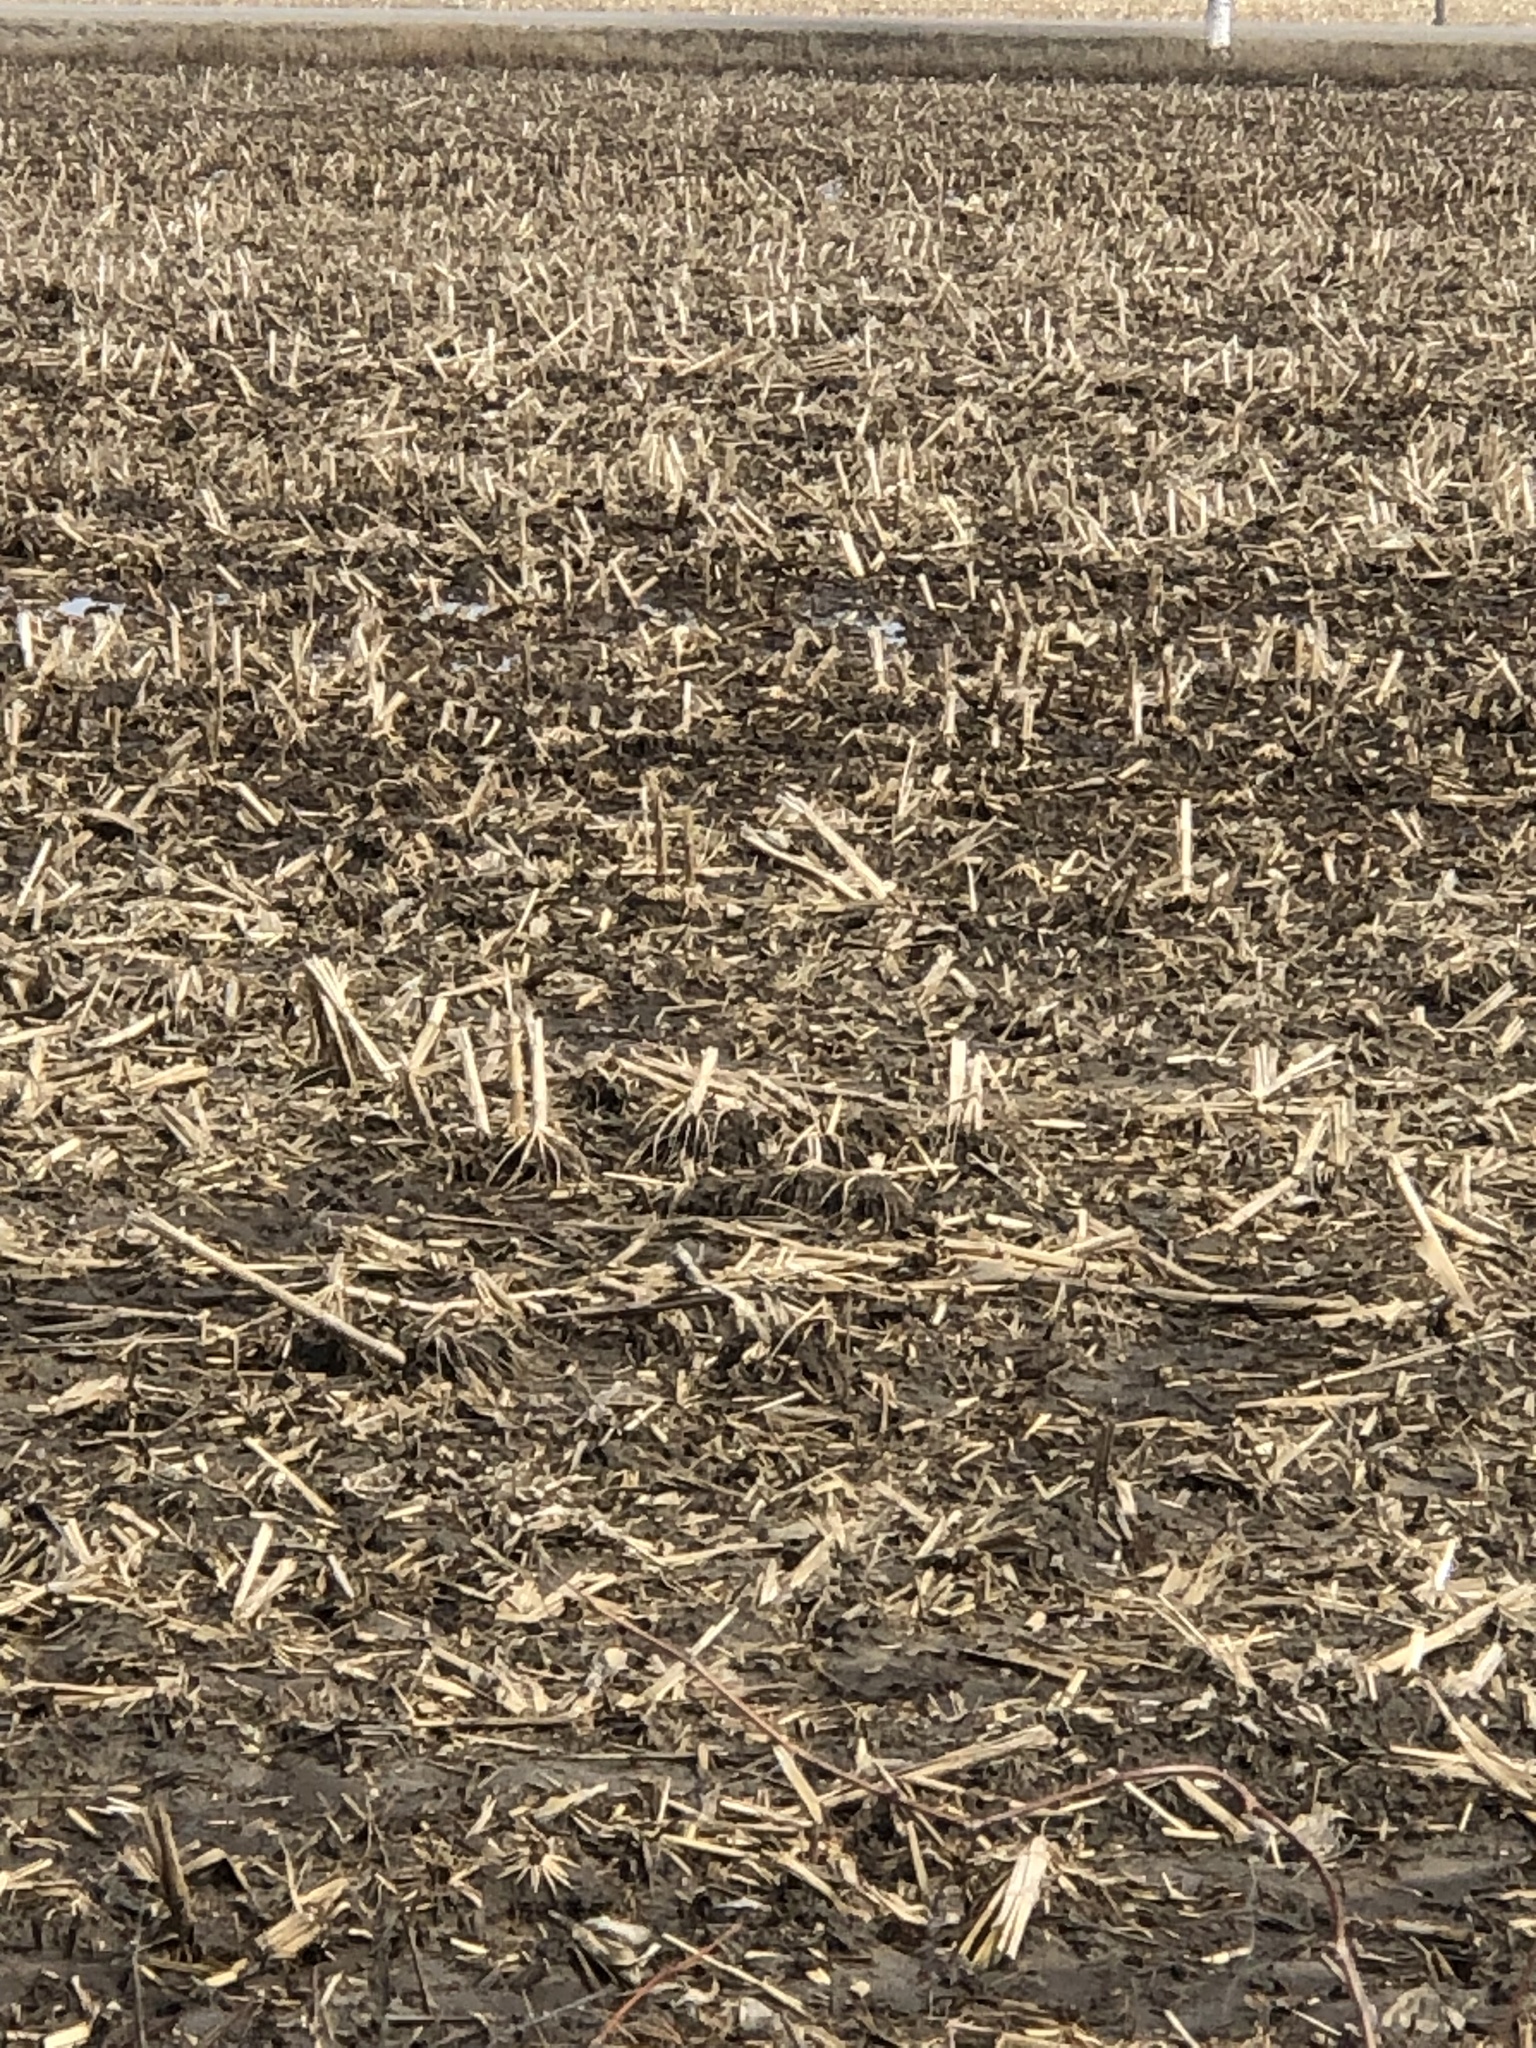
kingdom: Plantae
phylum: Tracheophyta
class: Liliopsida
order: Poales
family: Poaceae
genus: Zea
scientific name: Zea mays
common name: Maize
